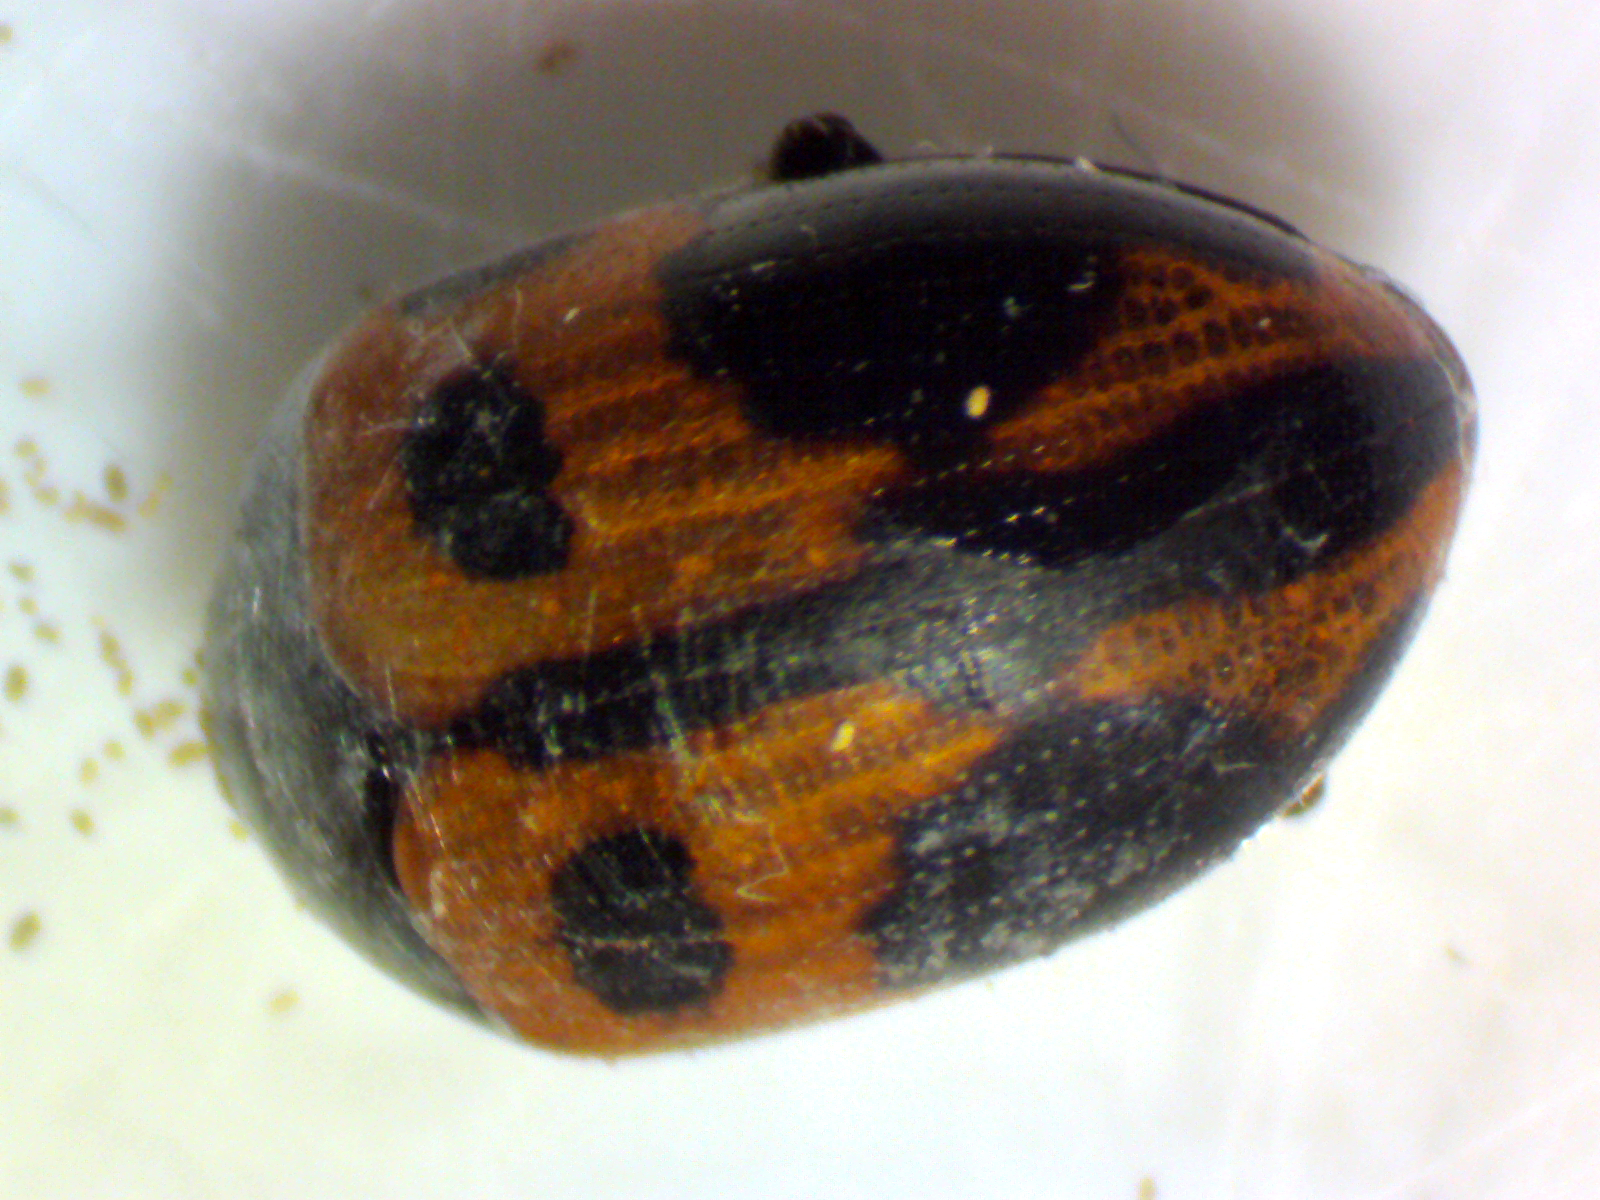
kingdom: Animalia
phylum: Arthropoda
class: Insecta
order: Coleoptera
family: Tenebrionidae
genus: Diaperis
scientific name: Diaperis maculata
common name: Darkling beetle
